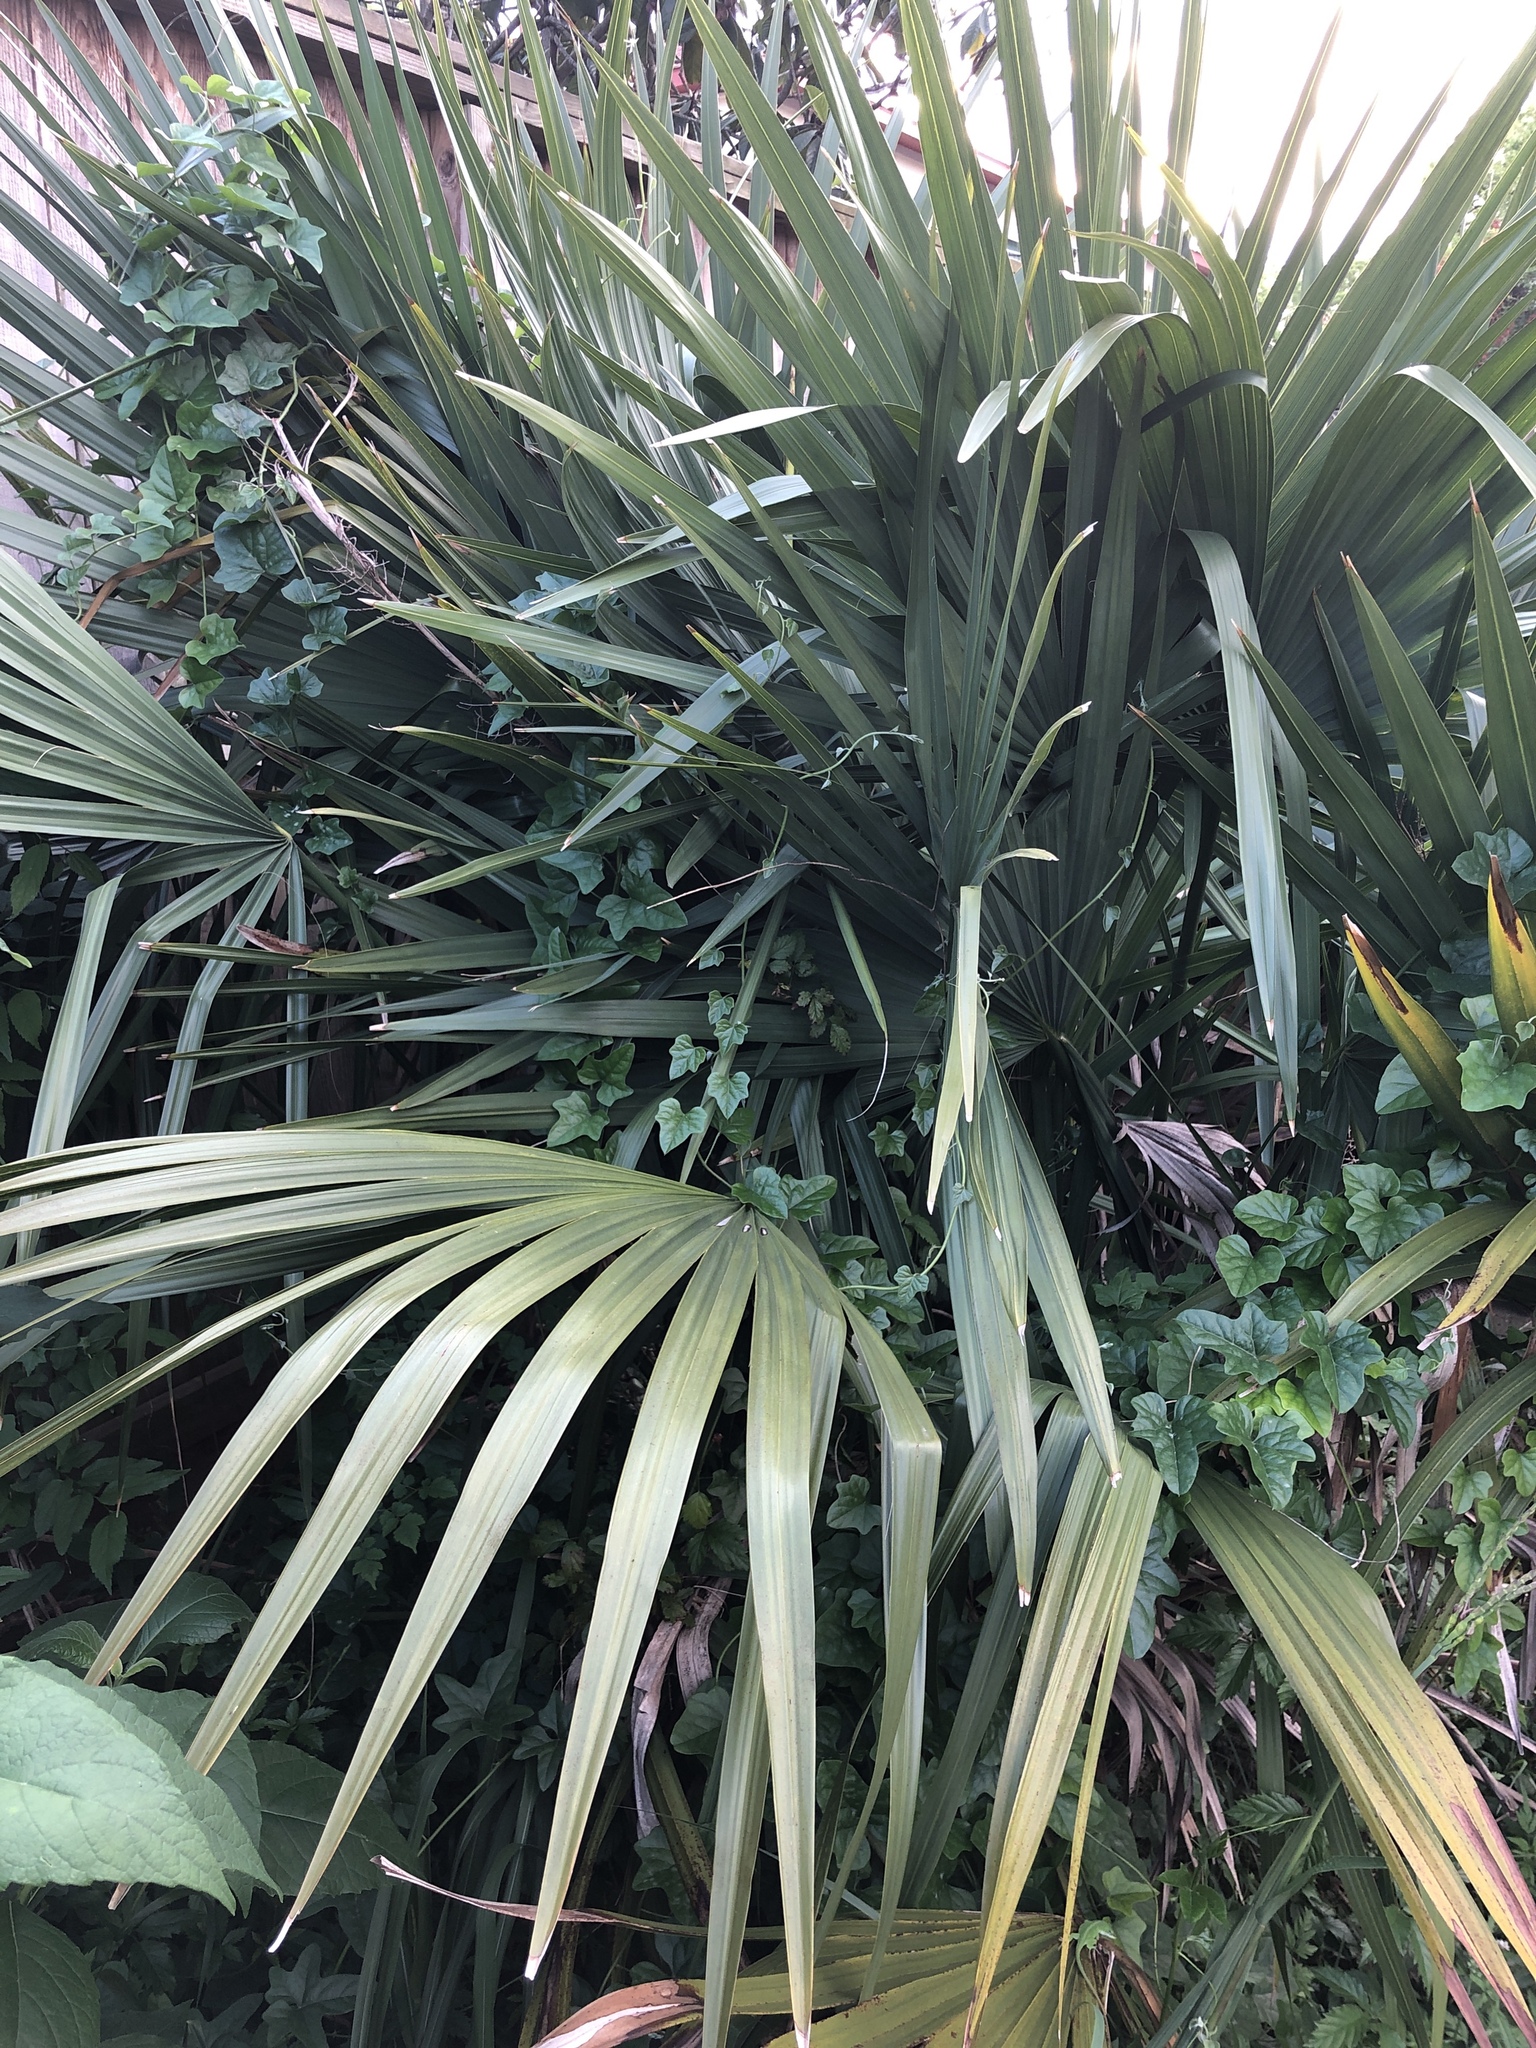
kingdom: Plantae
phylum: Tracheophyta
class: Liliopsida
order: Arecales
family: Arecaceae
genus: Sabal
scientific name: Sabal minor
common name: Dwarf palmetto
